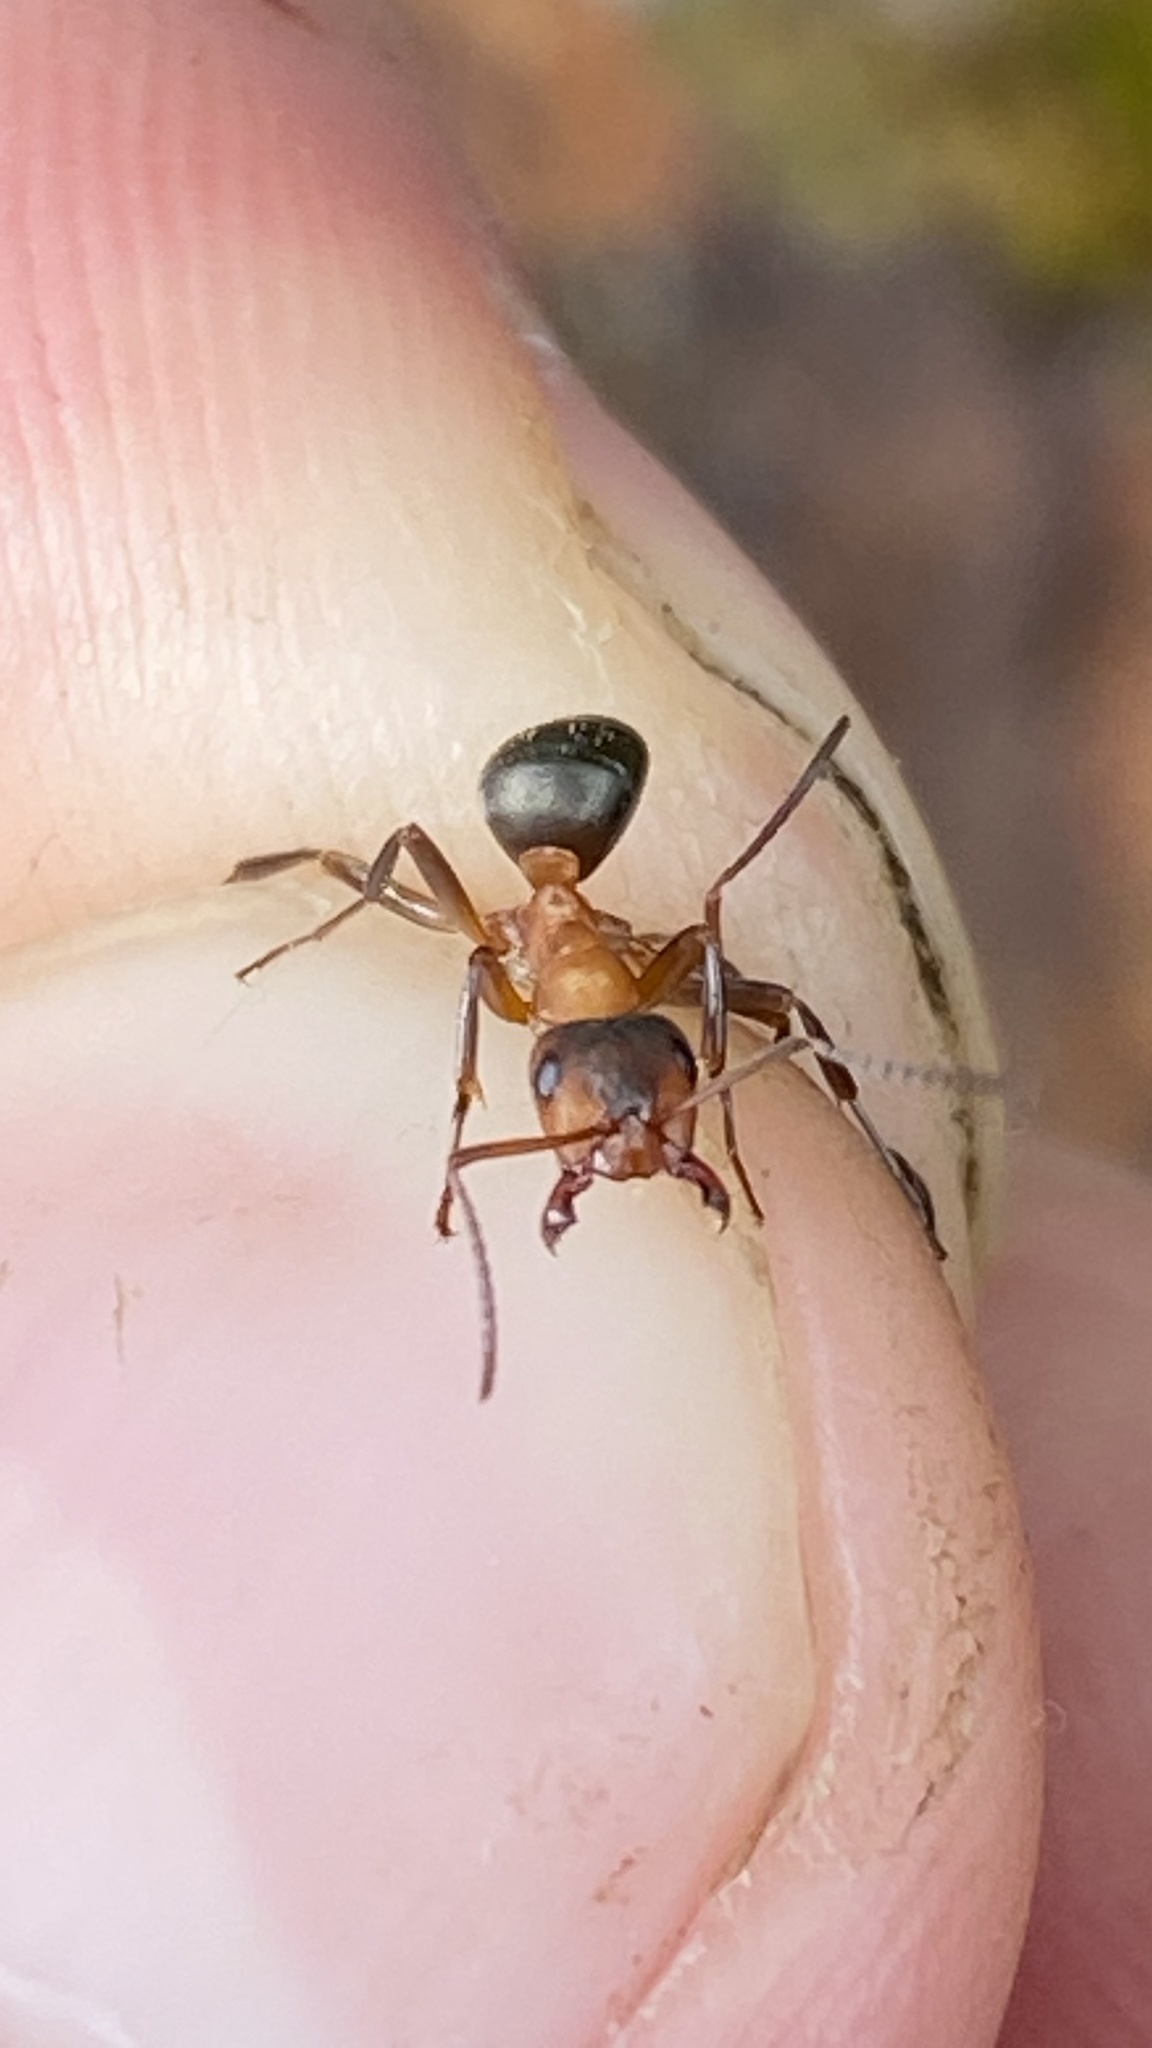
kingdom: Animalia
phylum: Arthropoda
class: Insecta
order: Hymenoptera
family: Formicidae
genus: Formica
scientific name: Formica sanguinea
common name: Blood-red ant
